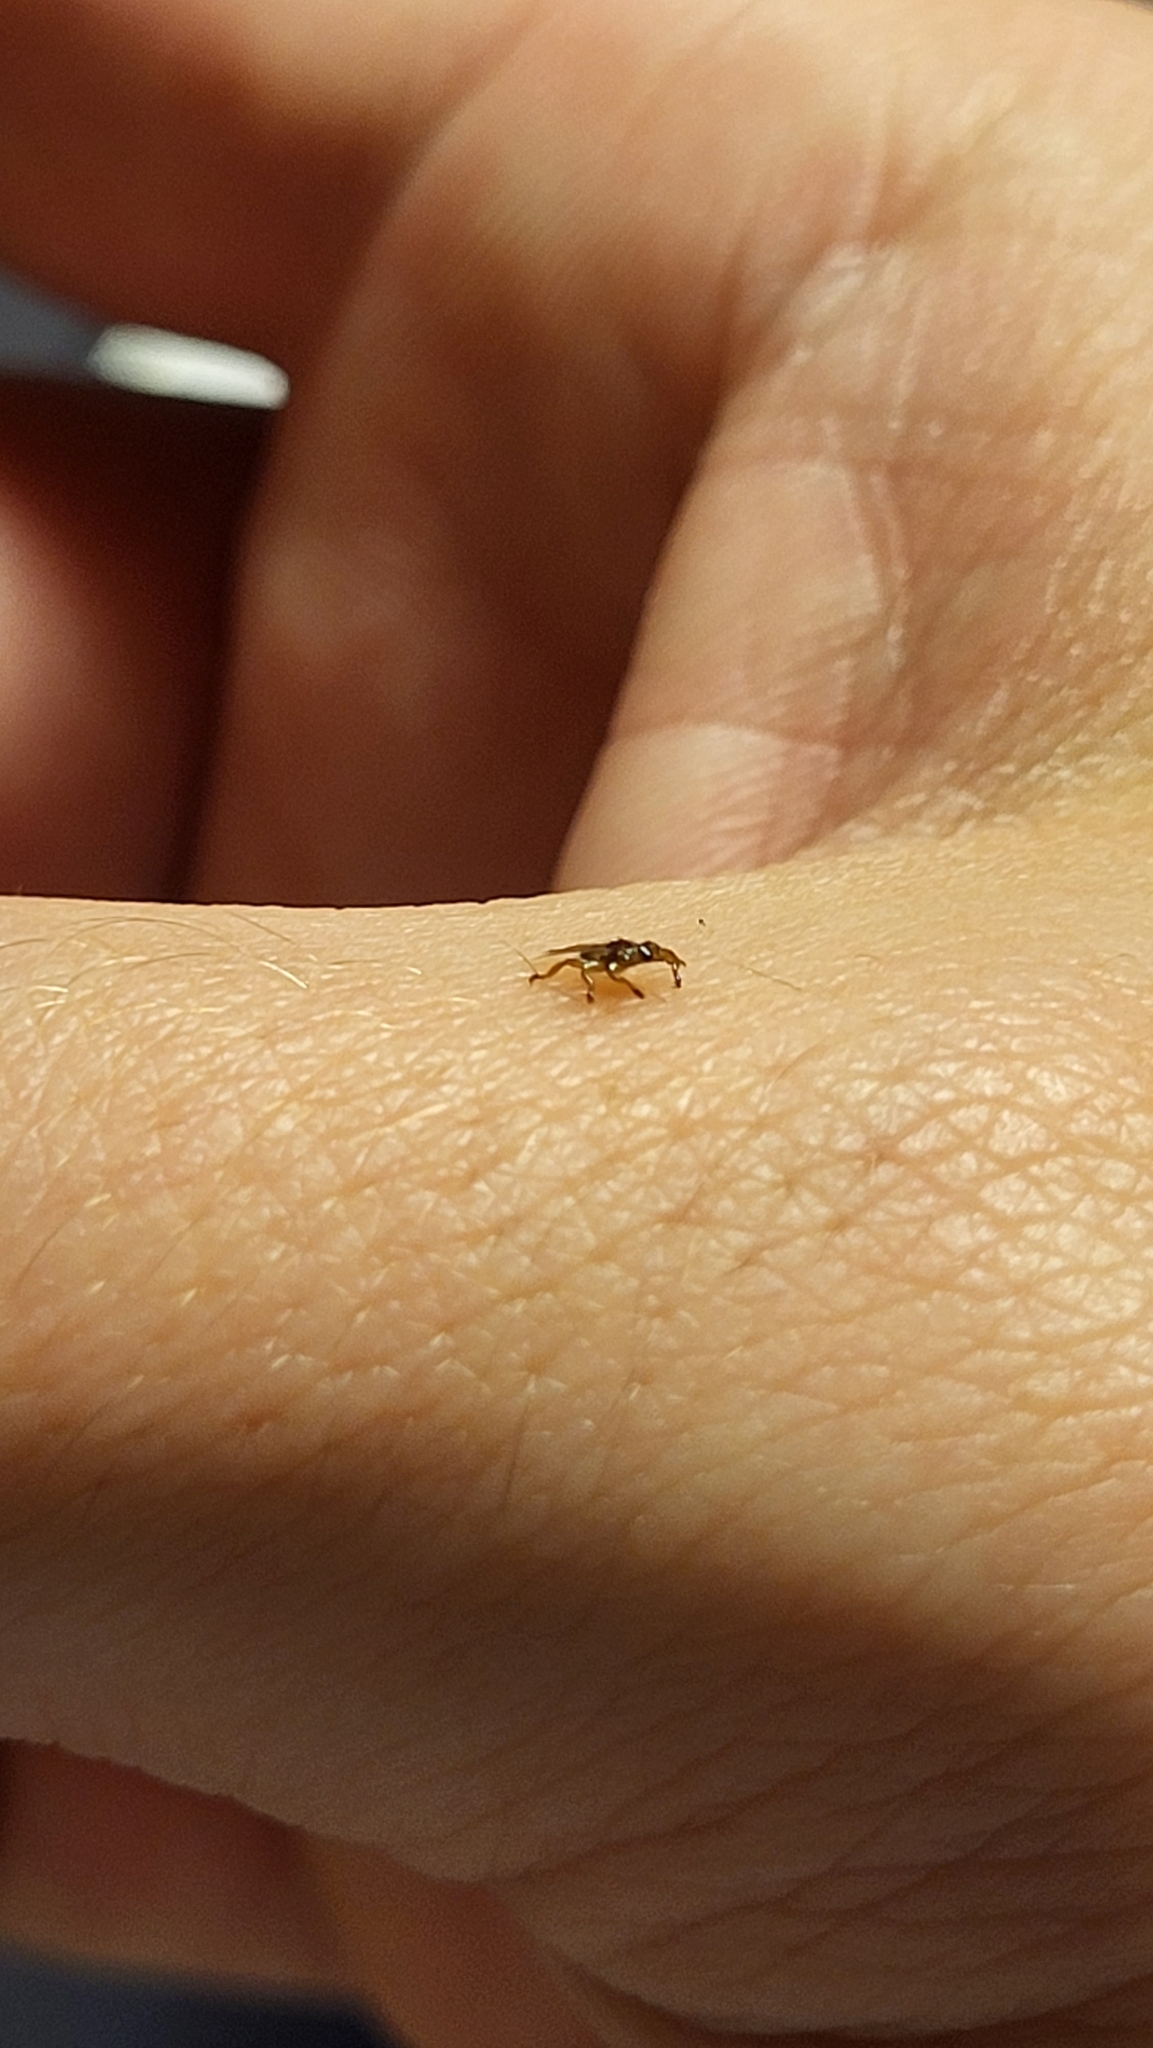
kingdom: Animalia
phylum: Arthropoda
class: Insecta
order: Diptera
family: Hippoboscidae
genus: Lipoptena
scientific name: Lipoptena mazamae
